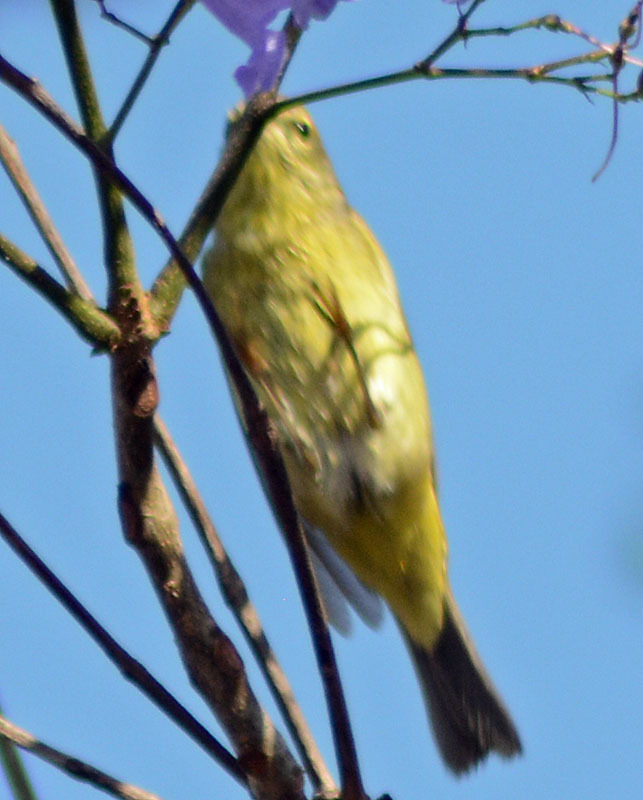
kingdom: Animalia
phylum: Chordata
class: Aves
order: Passeriformes
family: Parulidae
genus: Leiothlypis
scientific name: Leiothlypis celata
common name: Orange-crowned warbler
